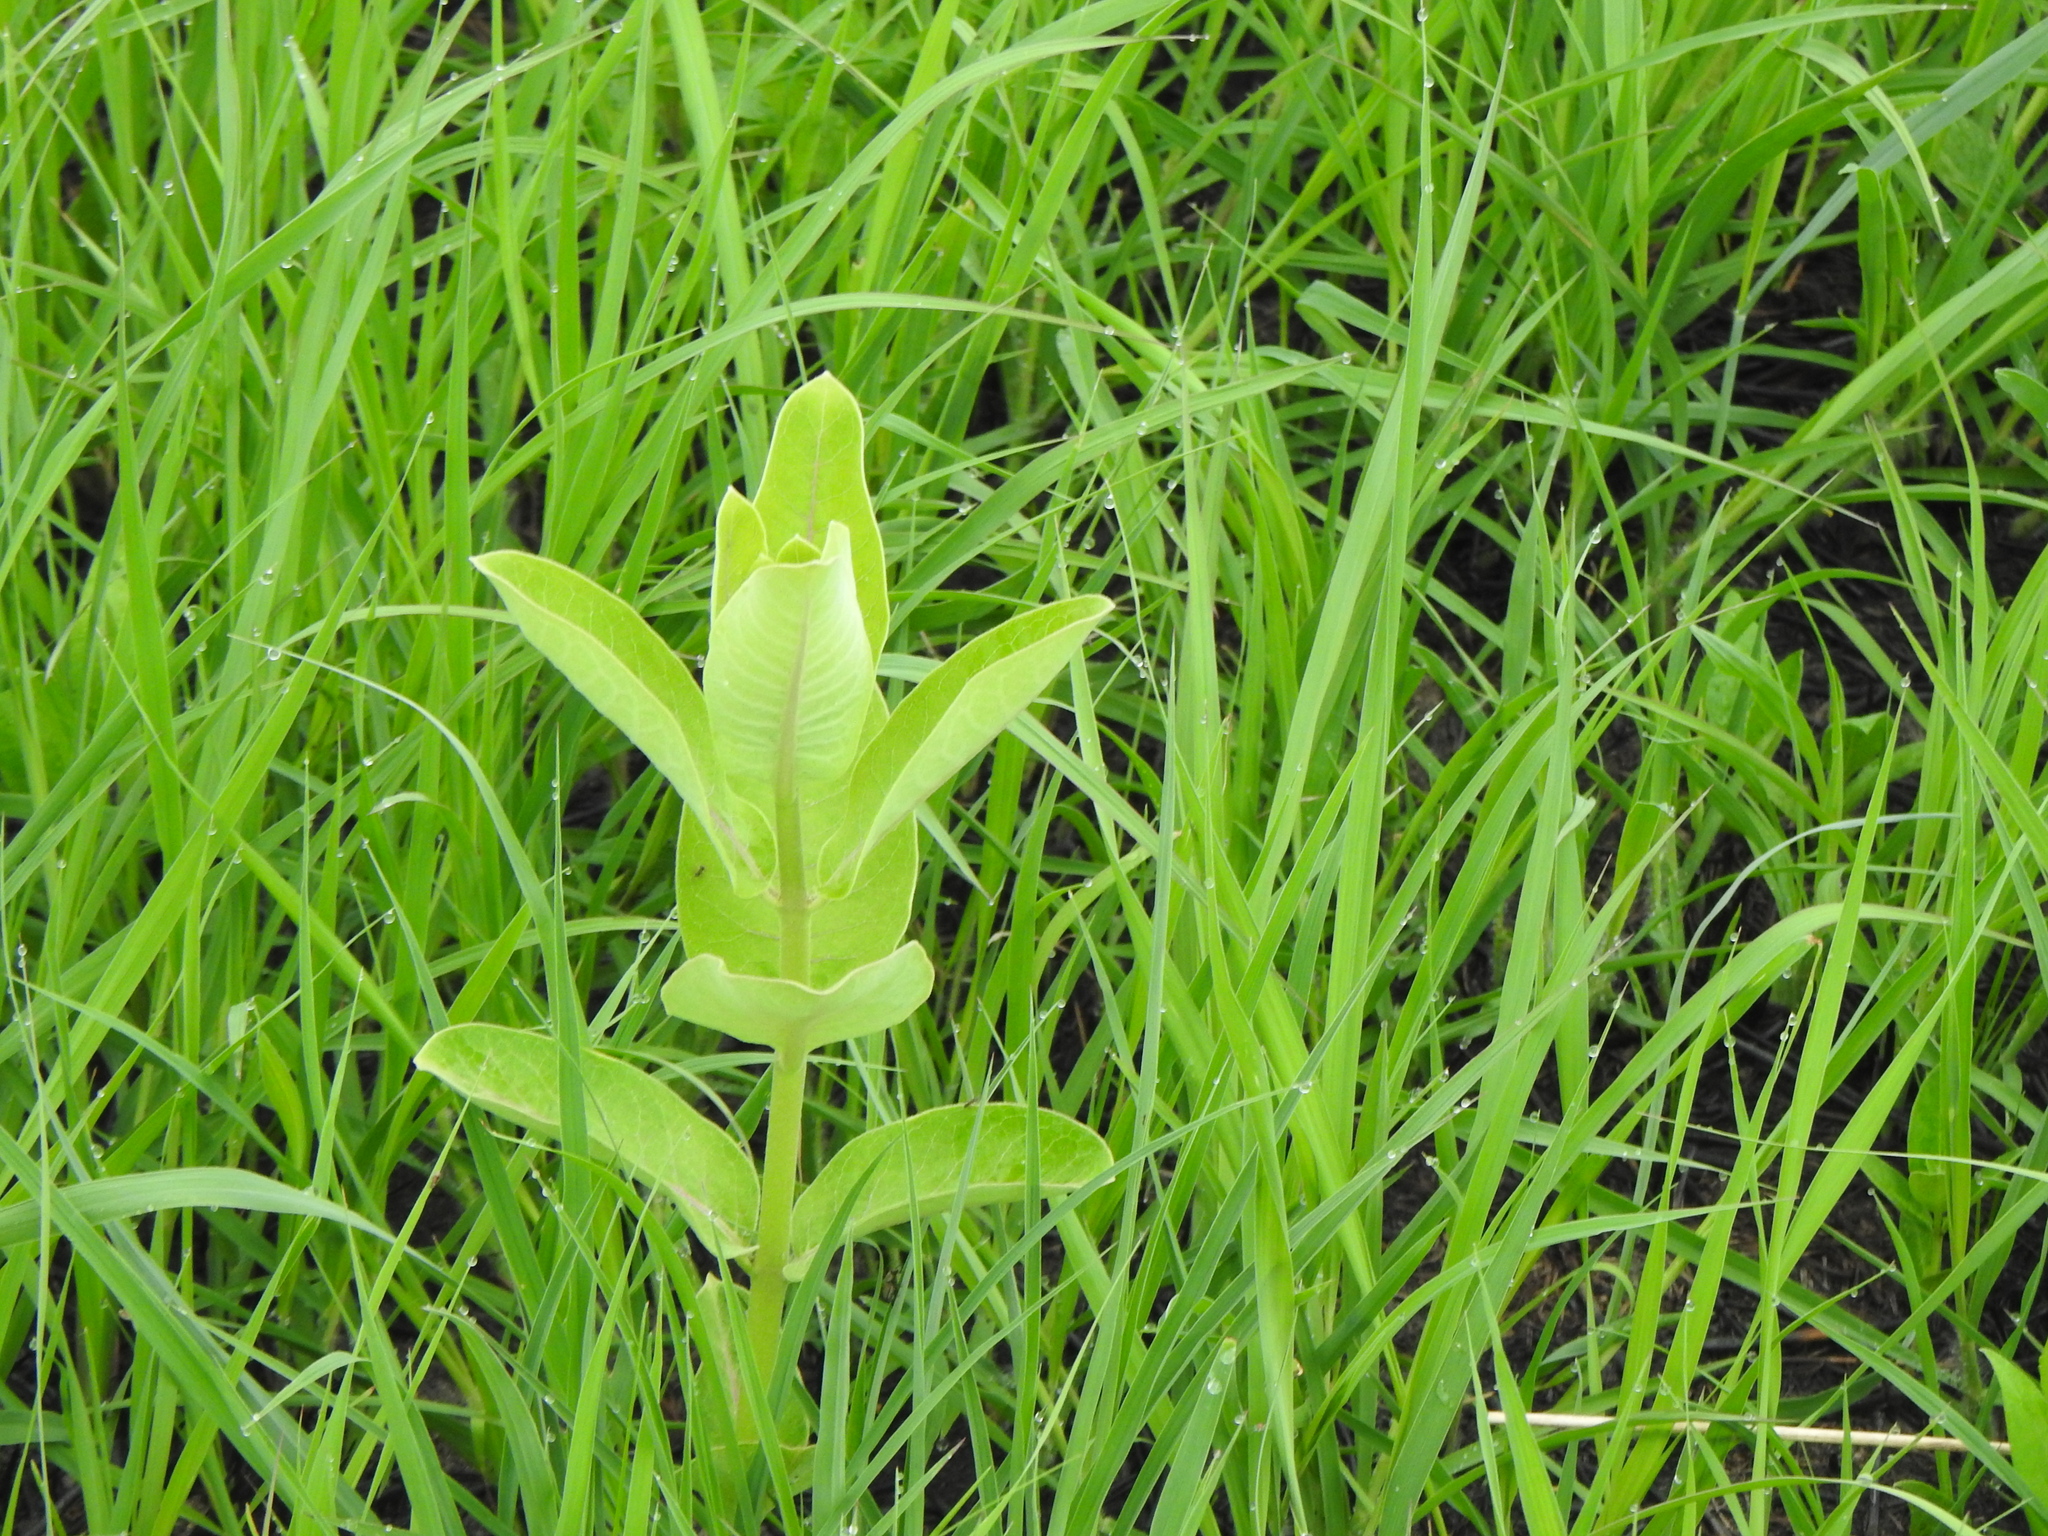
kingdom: Plantae
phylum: Tracheophyta
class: Magnoliopsida
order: Gentianales
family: Apocynaceae
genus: Asclepias
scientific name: Asclepias syriaca
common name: Common milkweed
